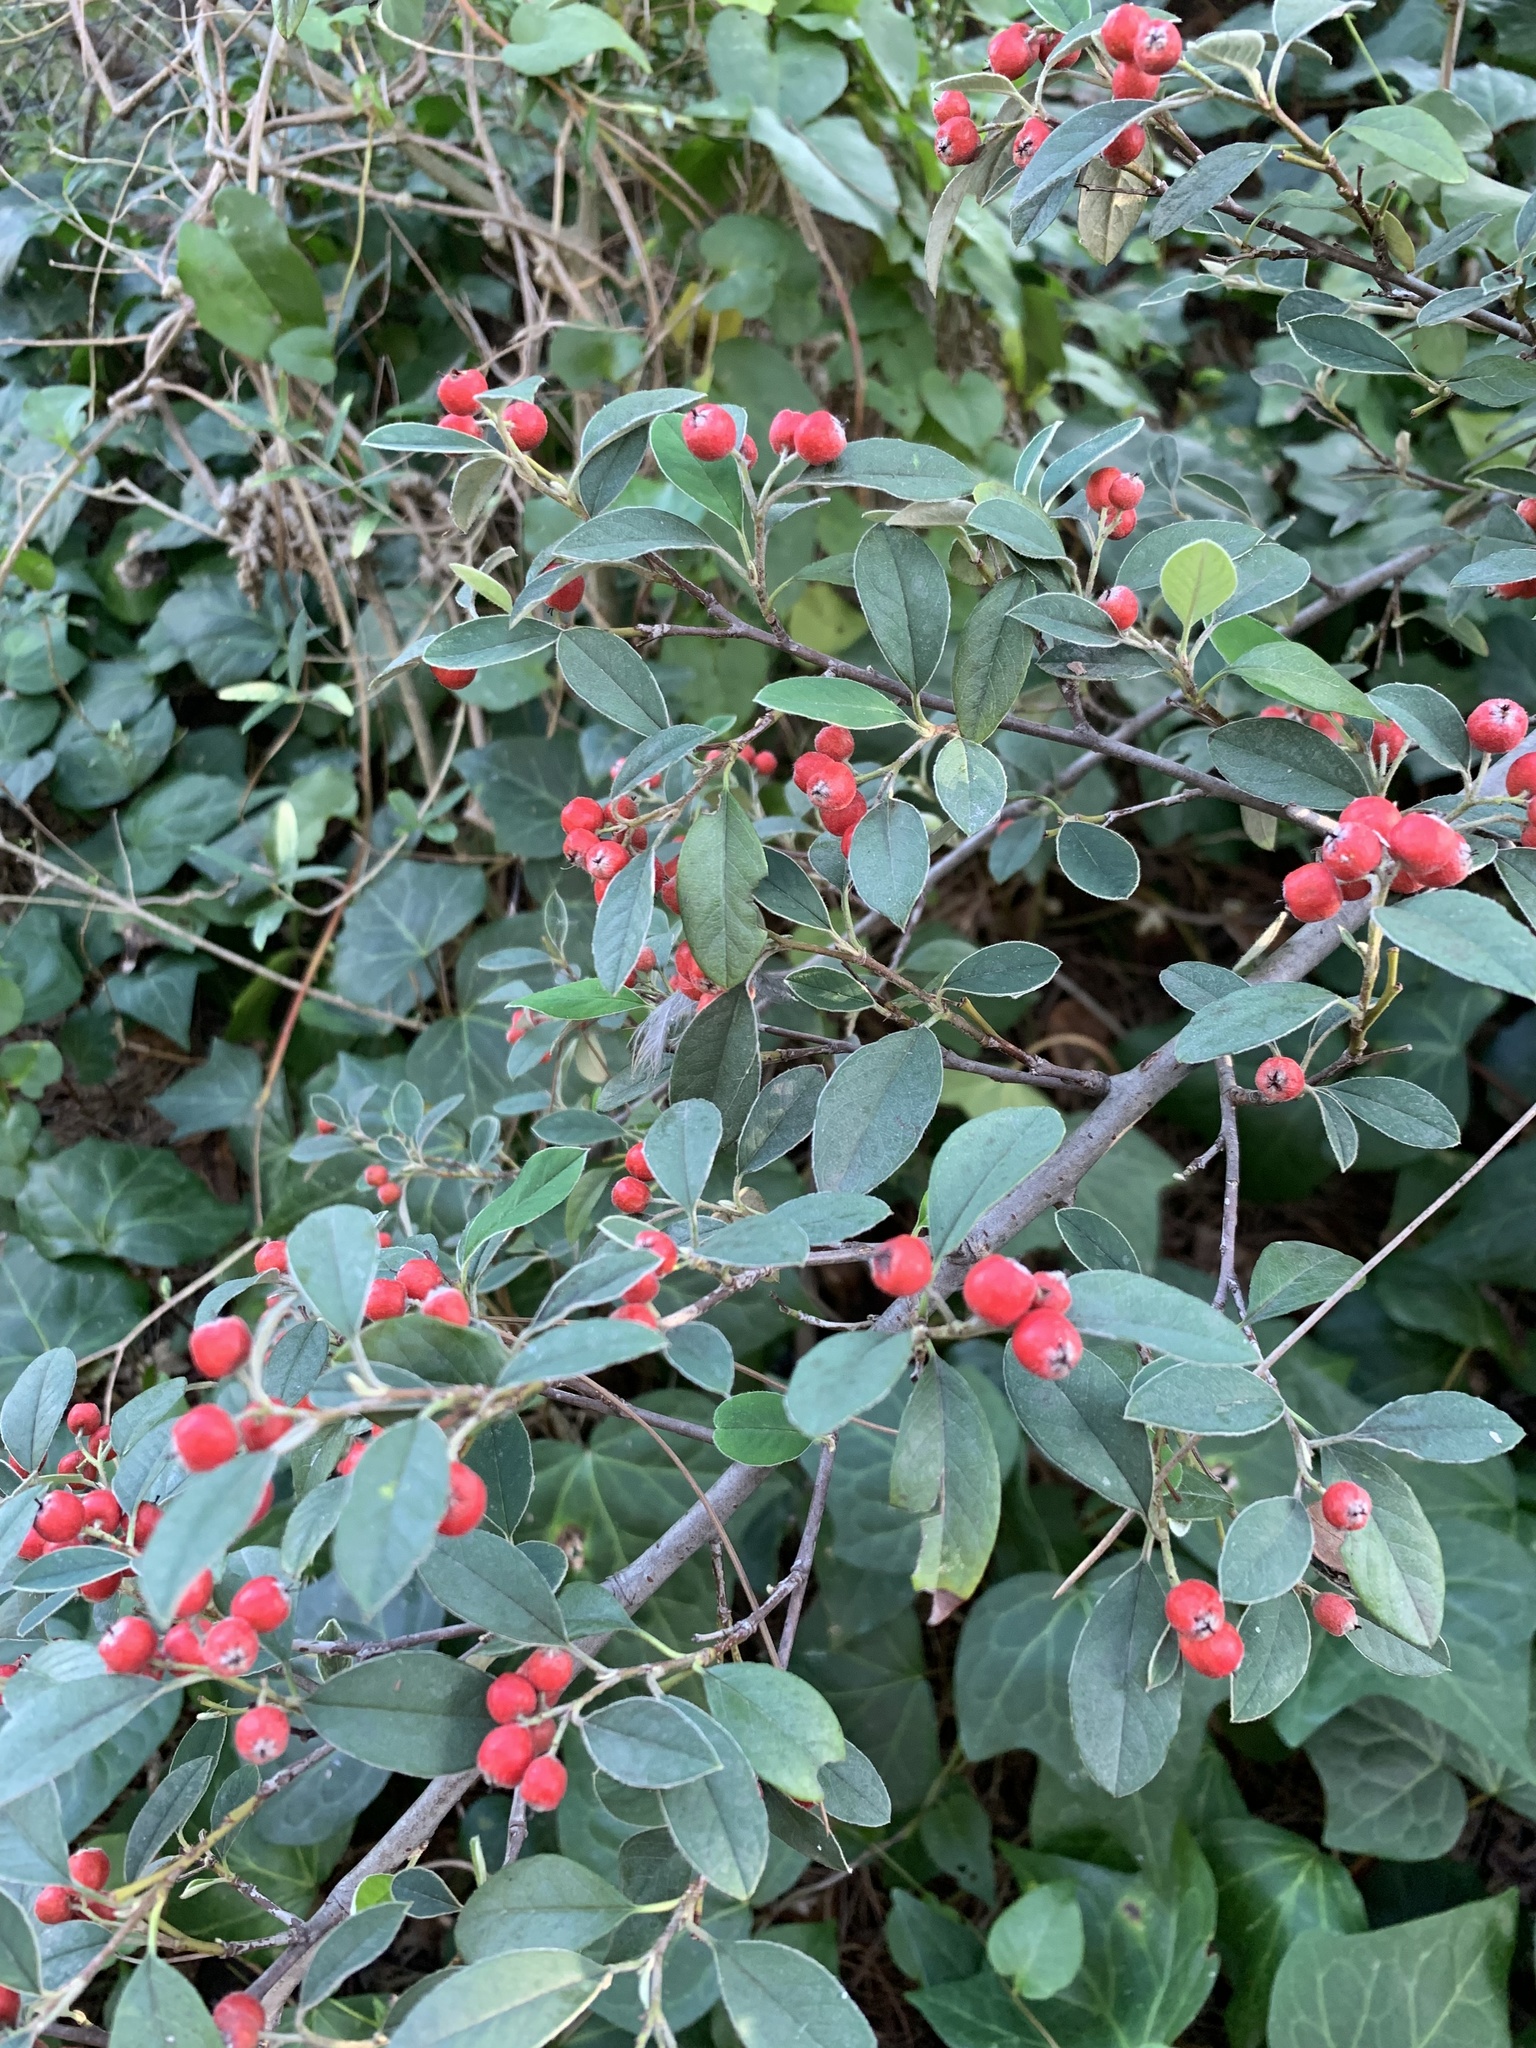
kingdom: Plantae
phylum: Tracheophyta
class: Magnoliopsida
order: Rosales
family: Rosaceae
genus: Cotoneaster
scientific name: Cotoneaster pannosus
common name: Silverleaf cotoneaster
